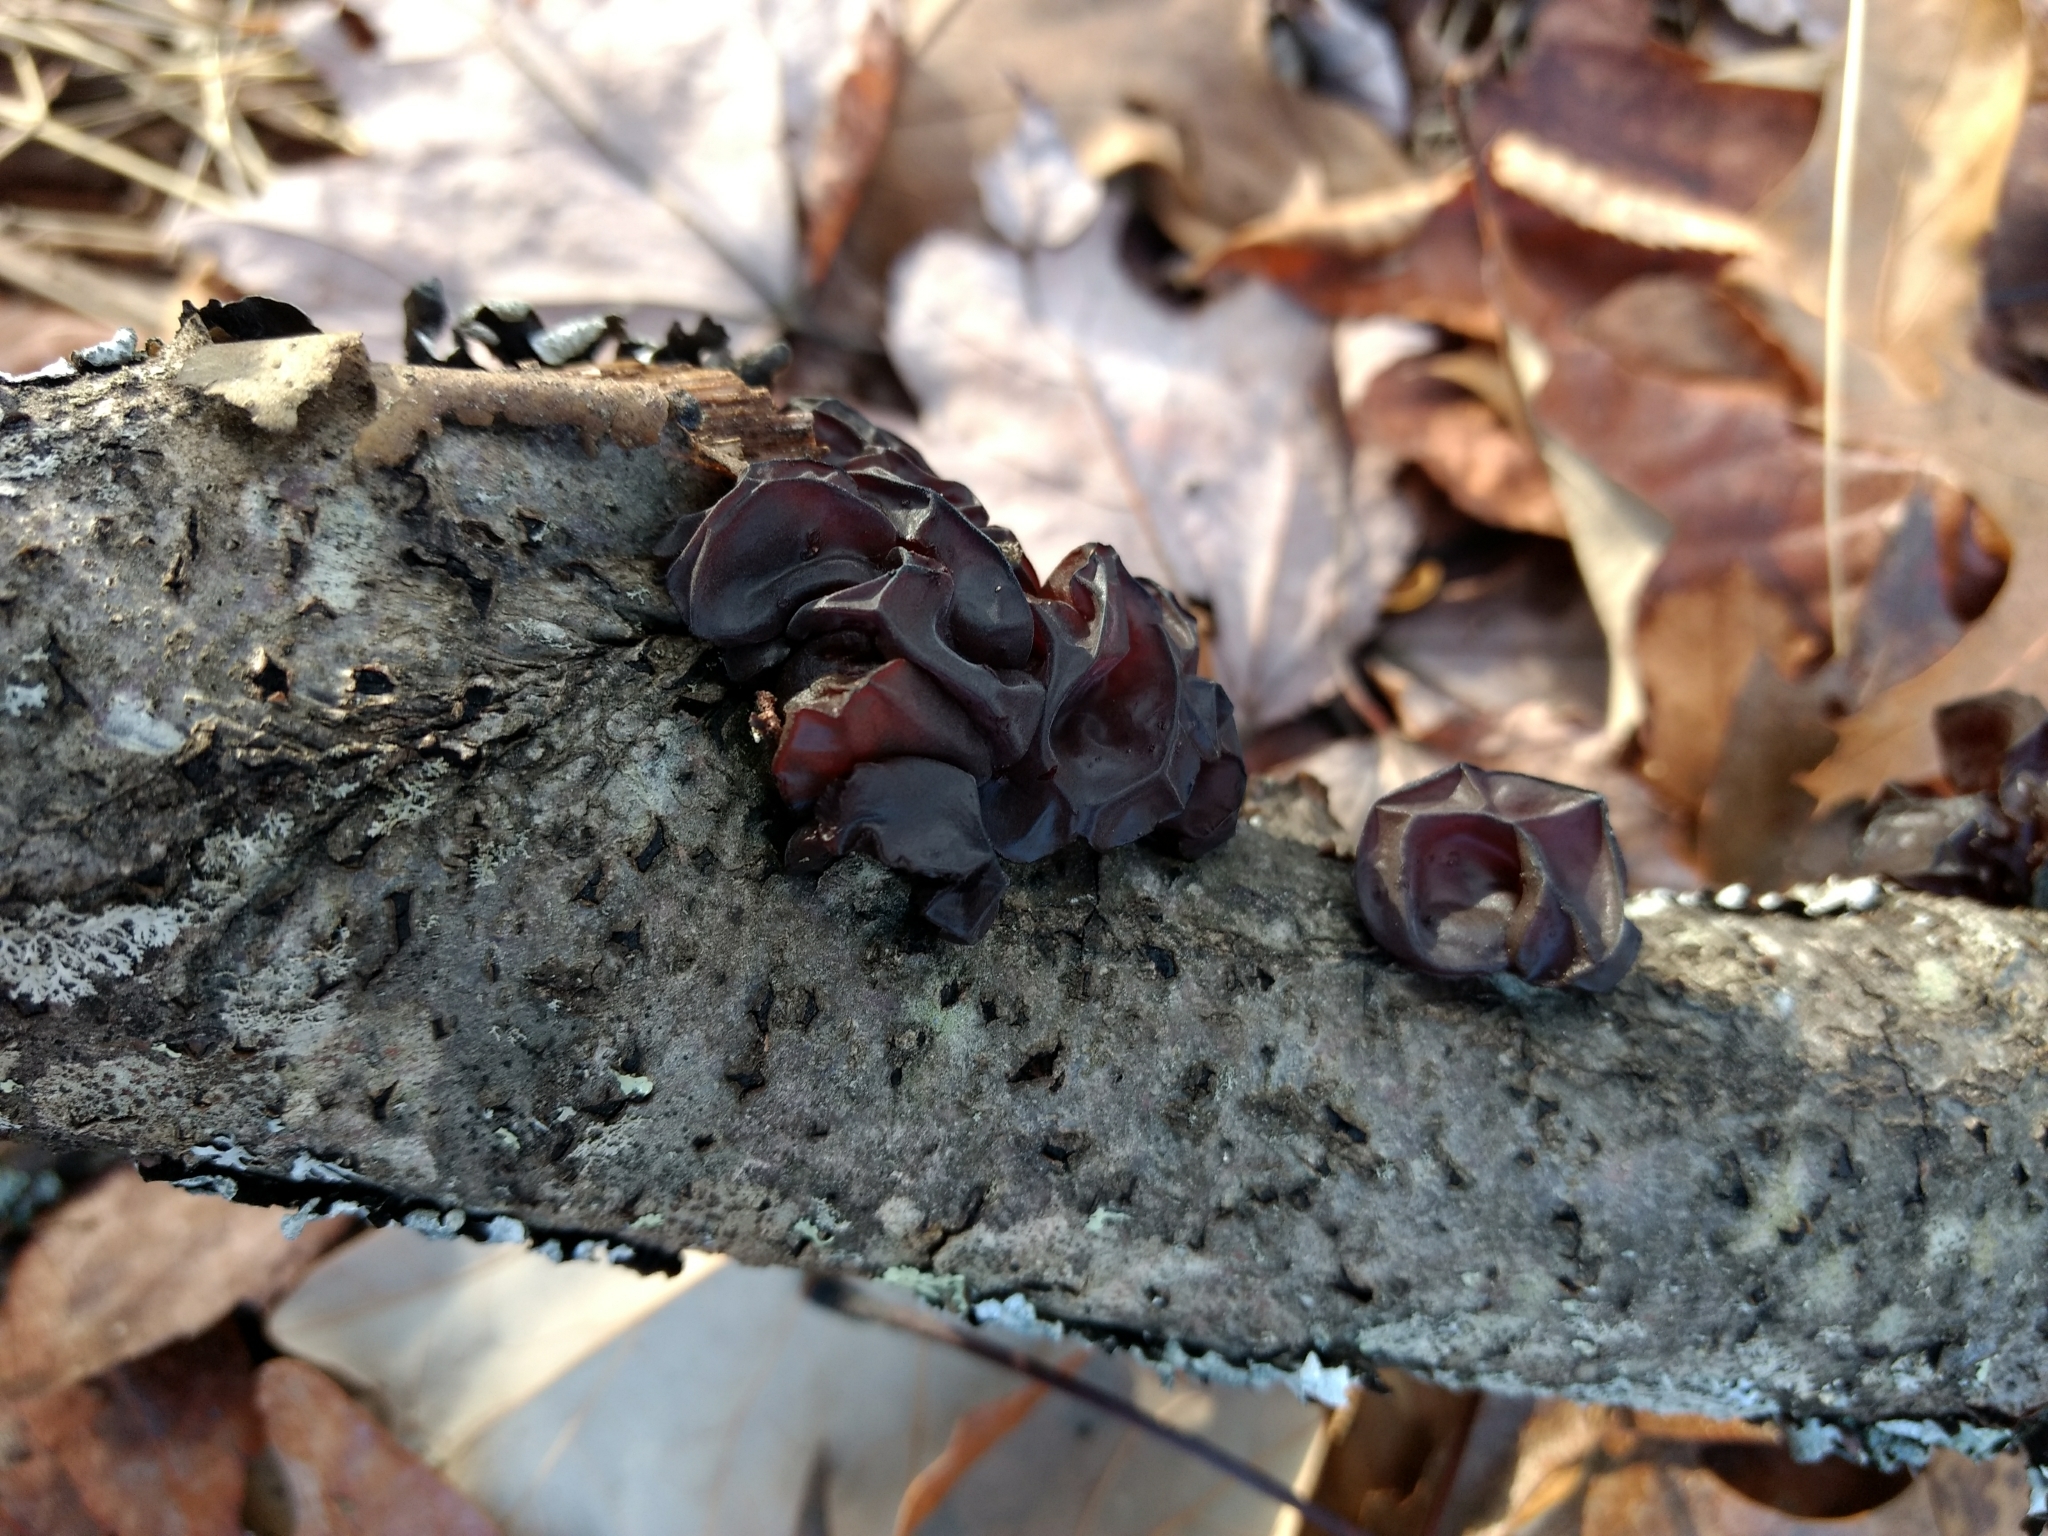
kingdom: Fungi
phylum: Basidiomycota
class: Agaricomycetes
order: Auriculariales
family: Auriculariaceae
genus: Exidia
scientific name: Exidia
